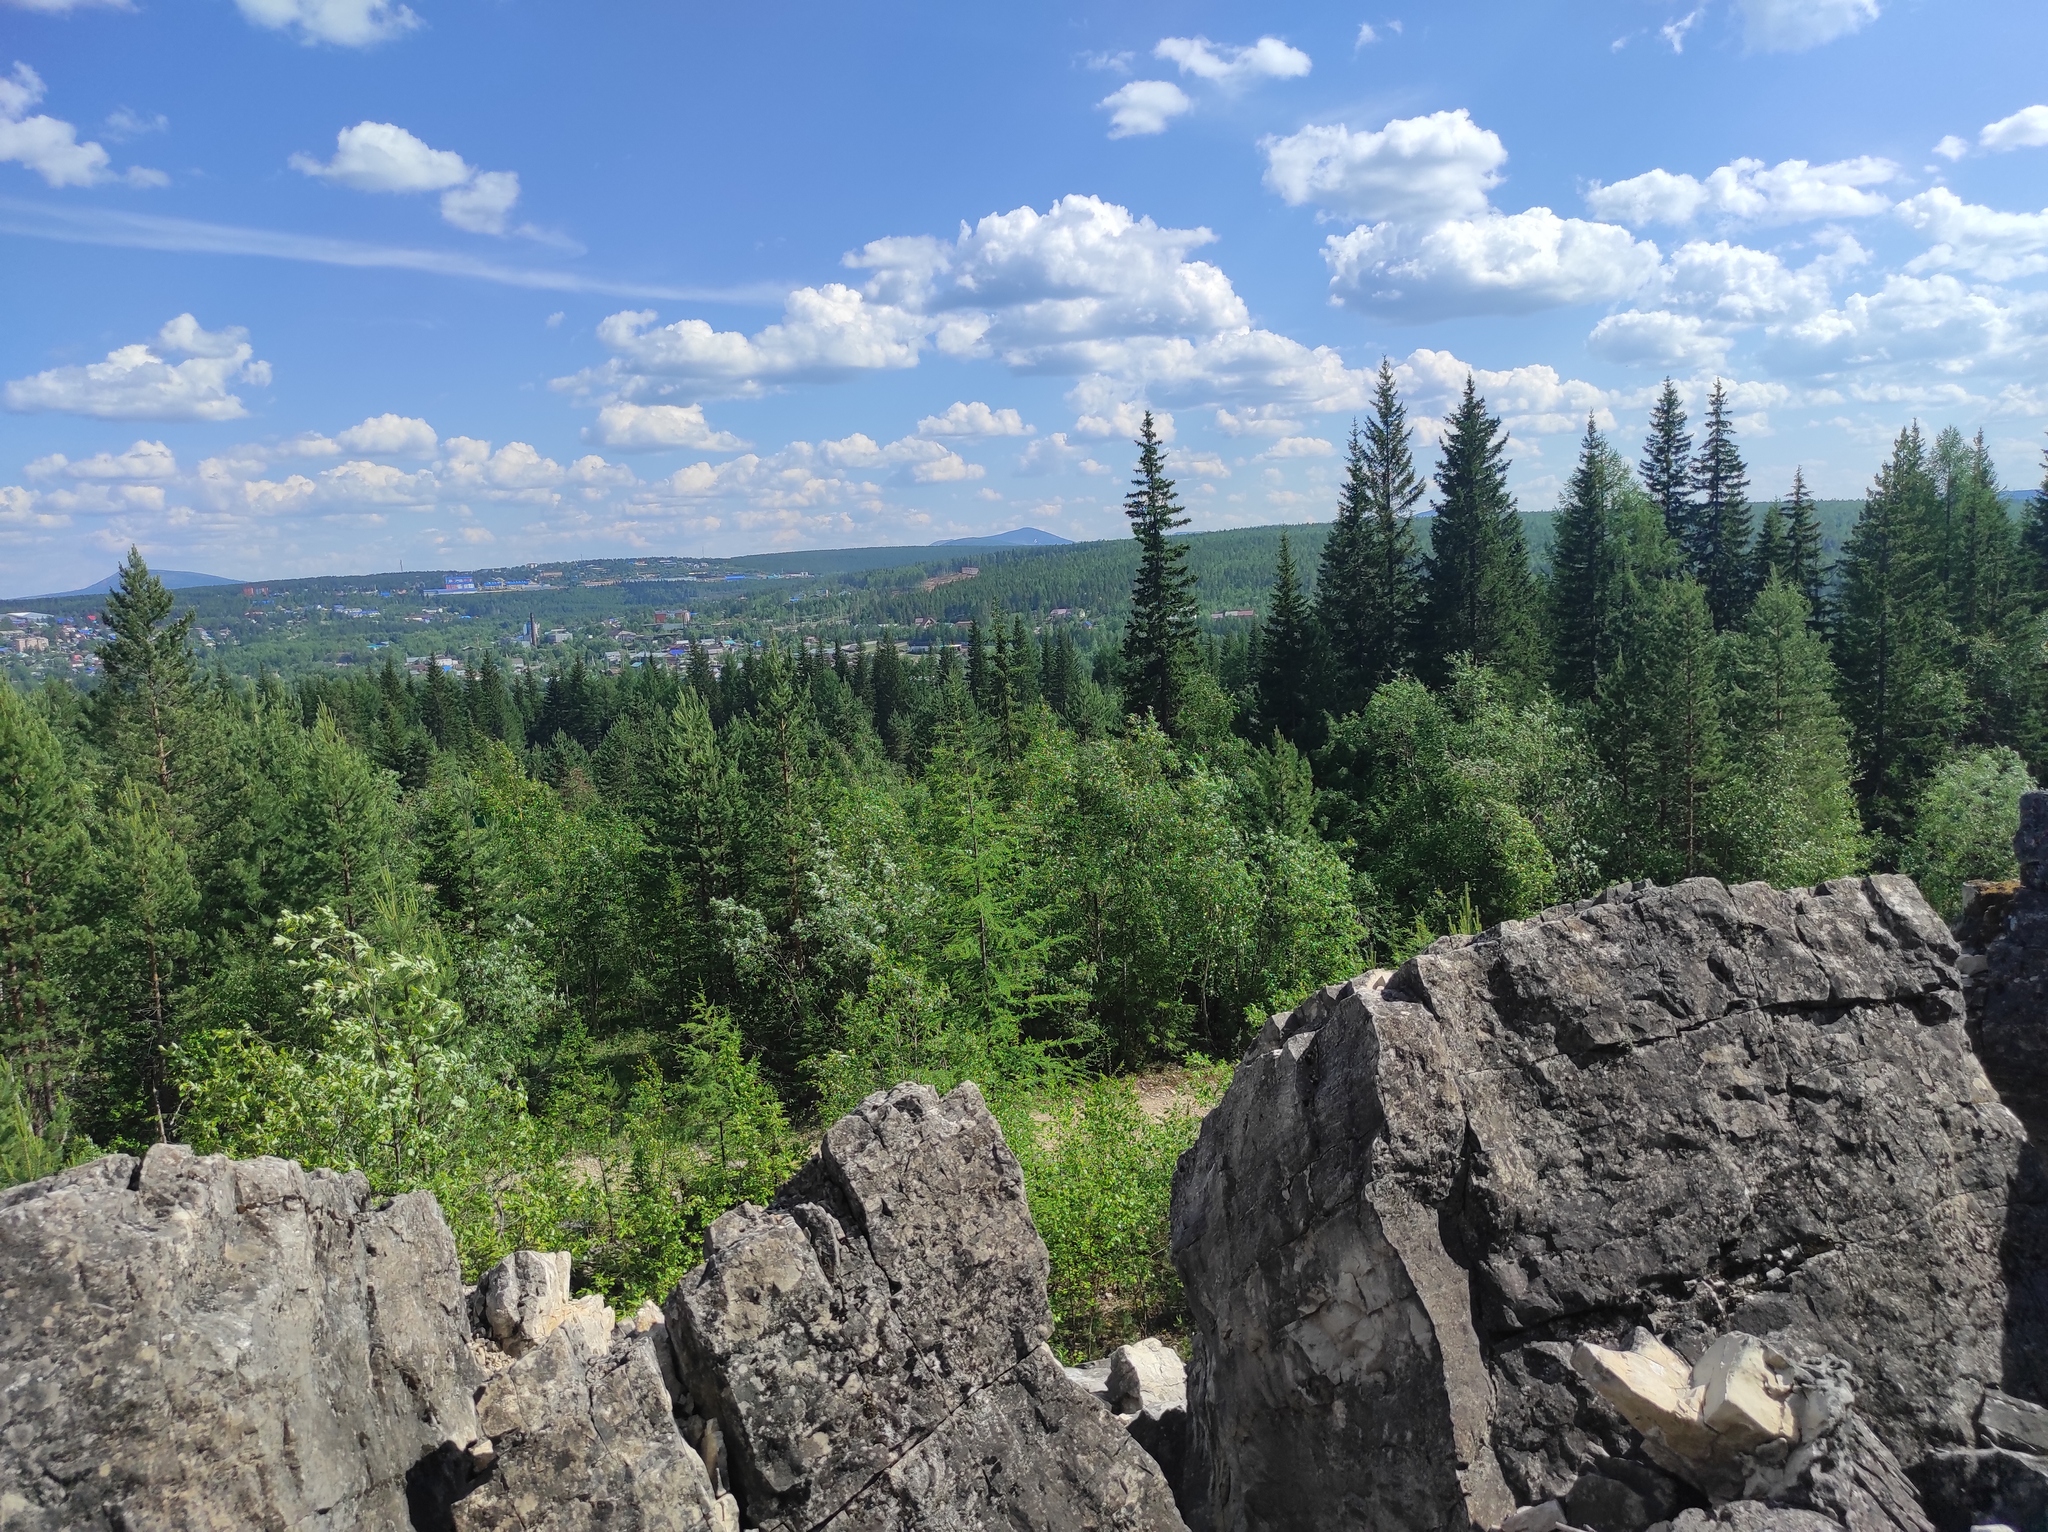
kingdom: Plantae
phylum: Tracheophyta
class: Pinopsida
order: Pinales
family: Pinaceae
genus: Larix
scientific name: Larix gmelinii
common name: Dahurian larch
